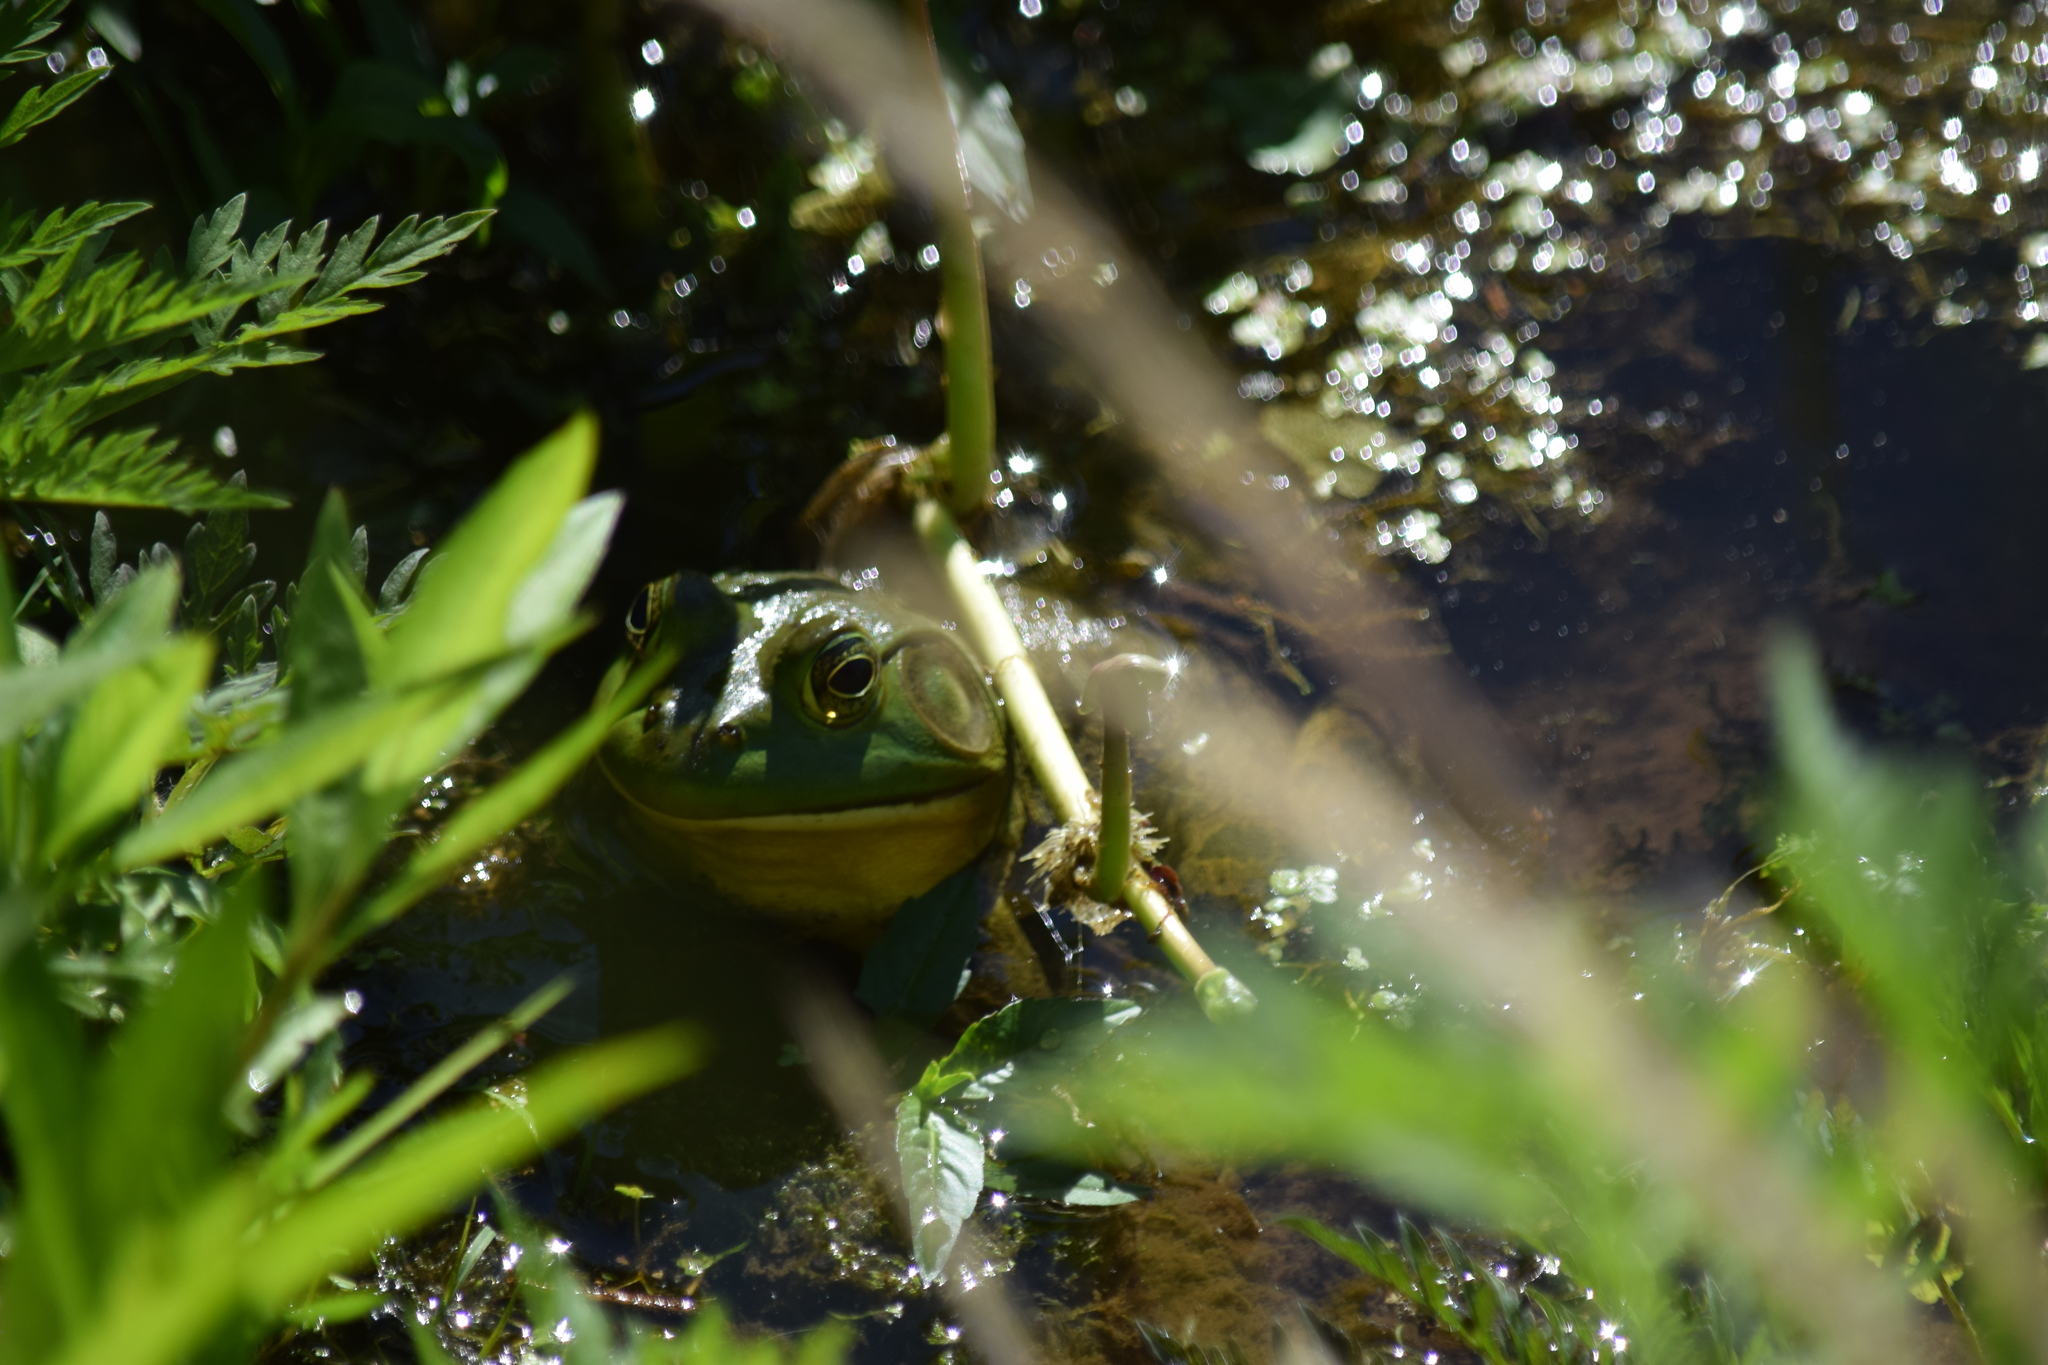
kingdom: Animalia
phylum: Chordata
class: Amphibia
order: Anura
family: Ranidae
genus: Lithobates
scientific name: Lithobates catesbeianus
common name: American bullfrog
